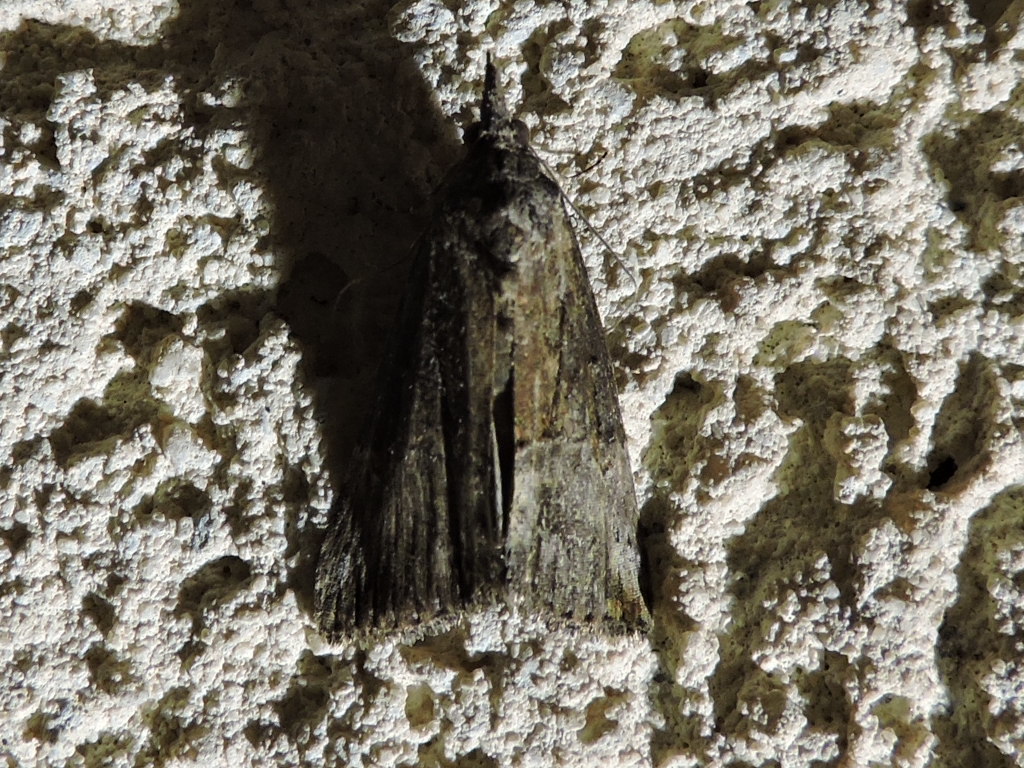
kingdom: Animalia
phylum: Arthropoda
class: Insecta
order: Lepidoptera
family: Erebidae
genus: Hypena
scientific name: Hypena scabra
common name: Green cloverworm
